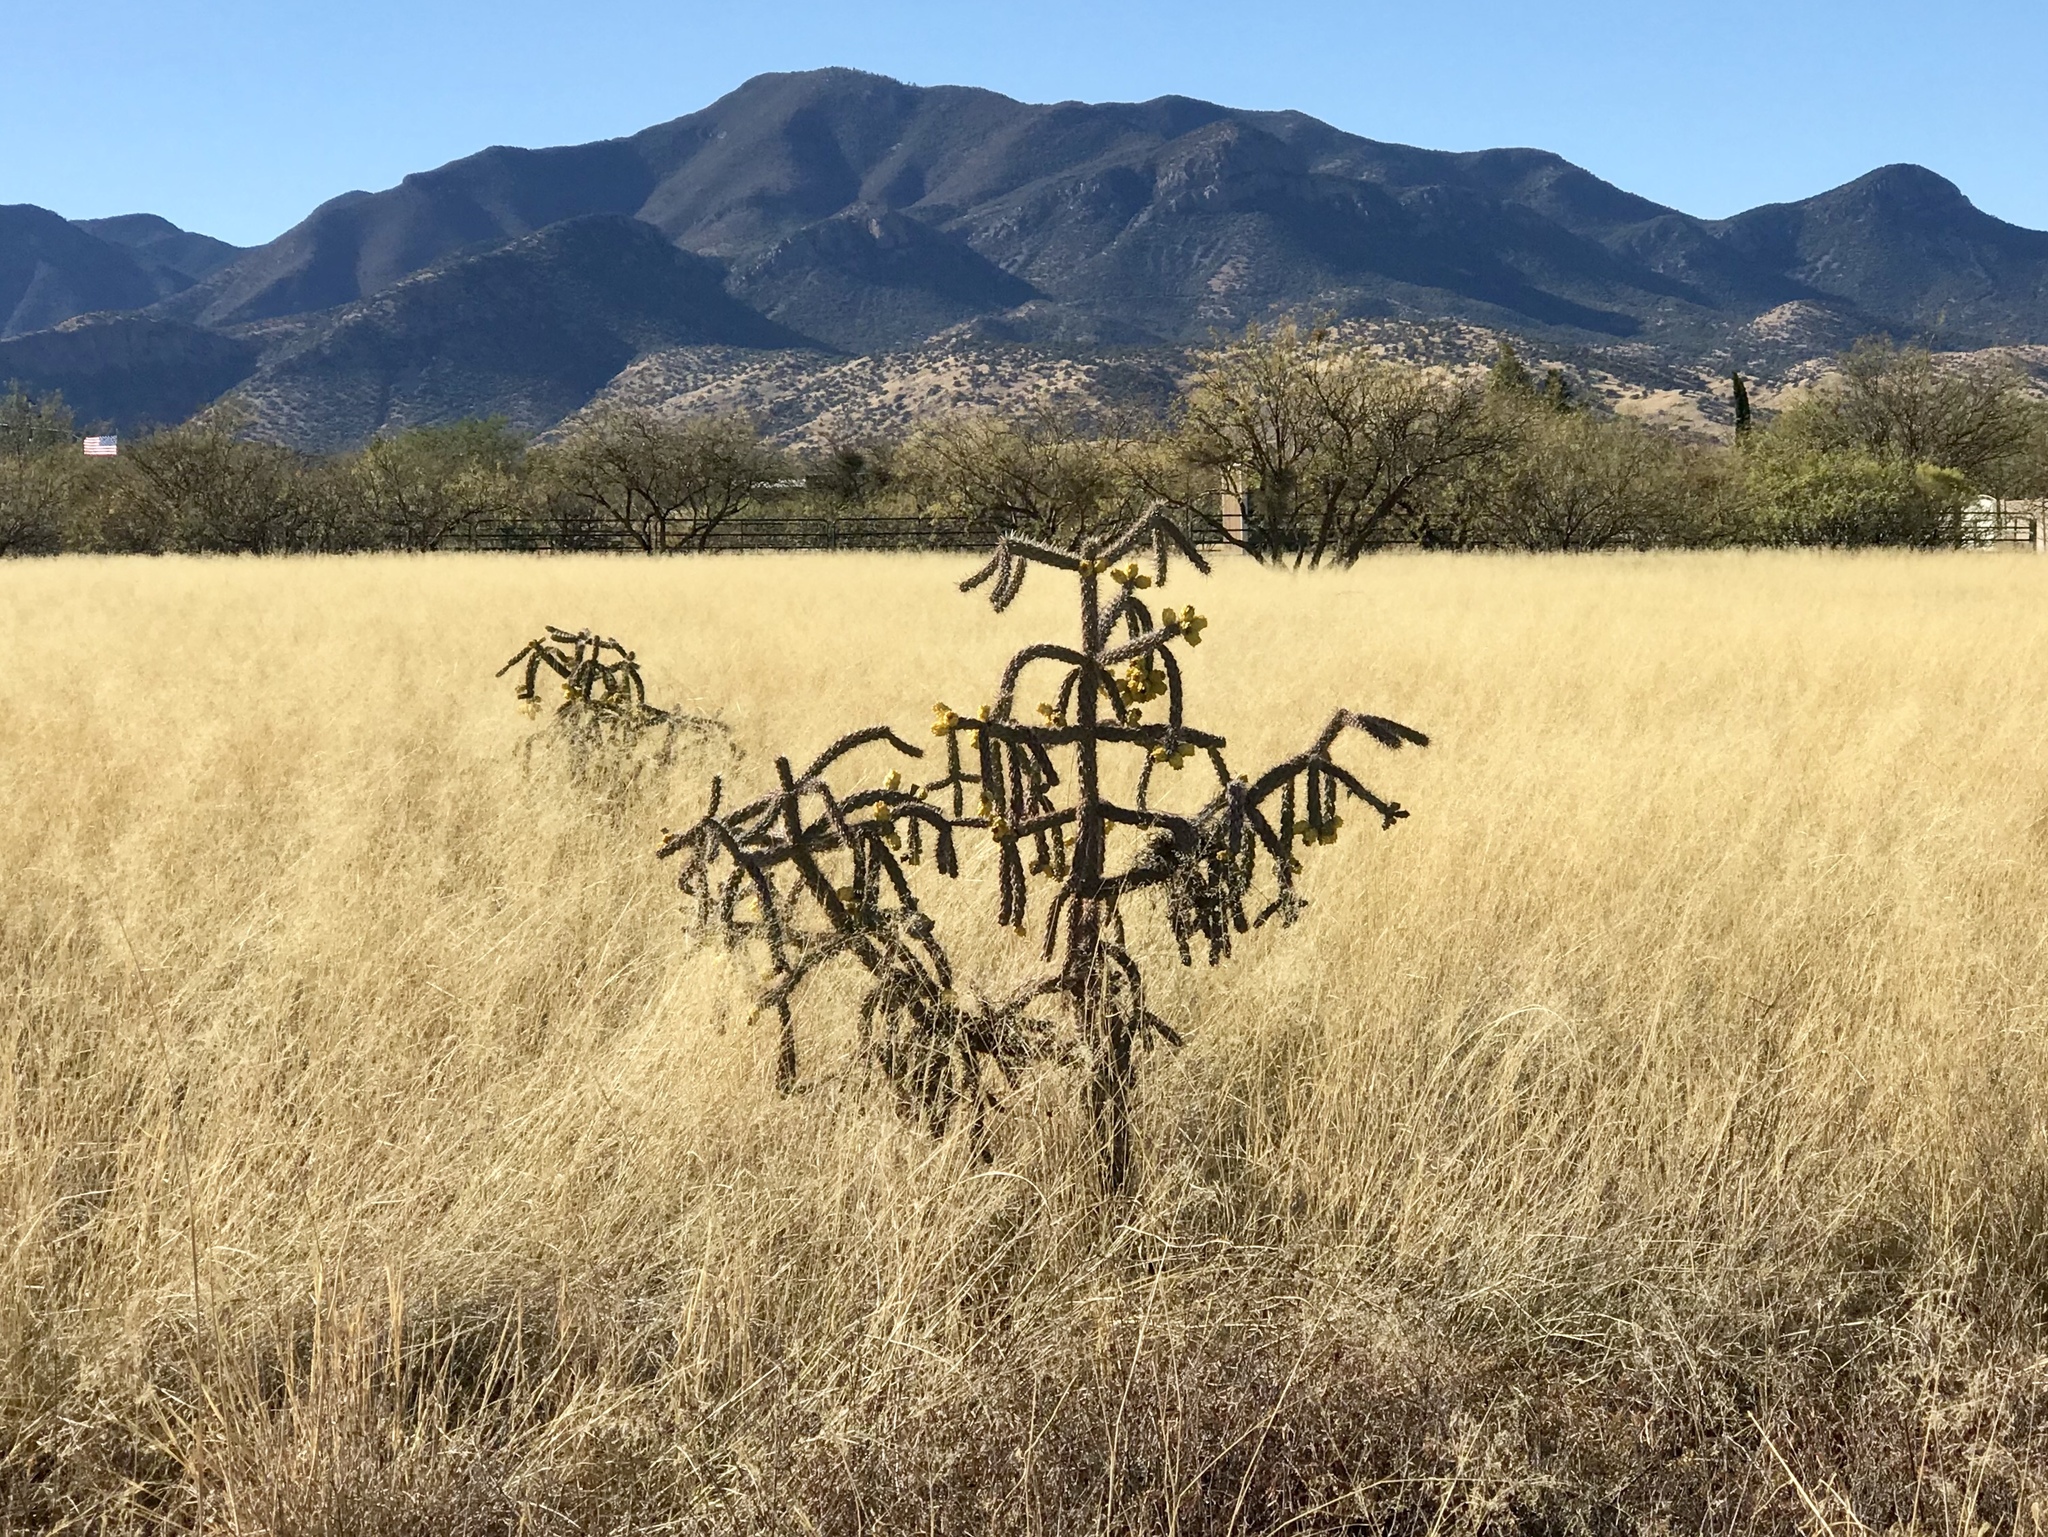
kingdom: Plantae
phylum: Tracheophyta
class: Magnoliopsida
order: Caryophyllales
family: Cactaceae
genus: Cylindropuntia
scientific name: Cylindropuntia imbricata
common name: Candelabrum cactus
